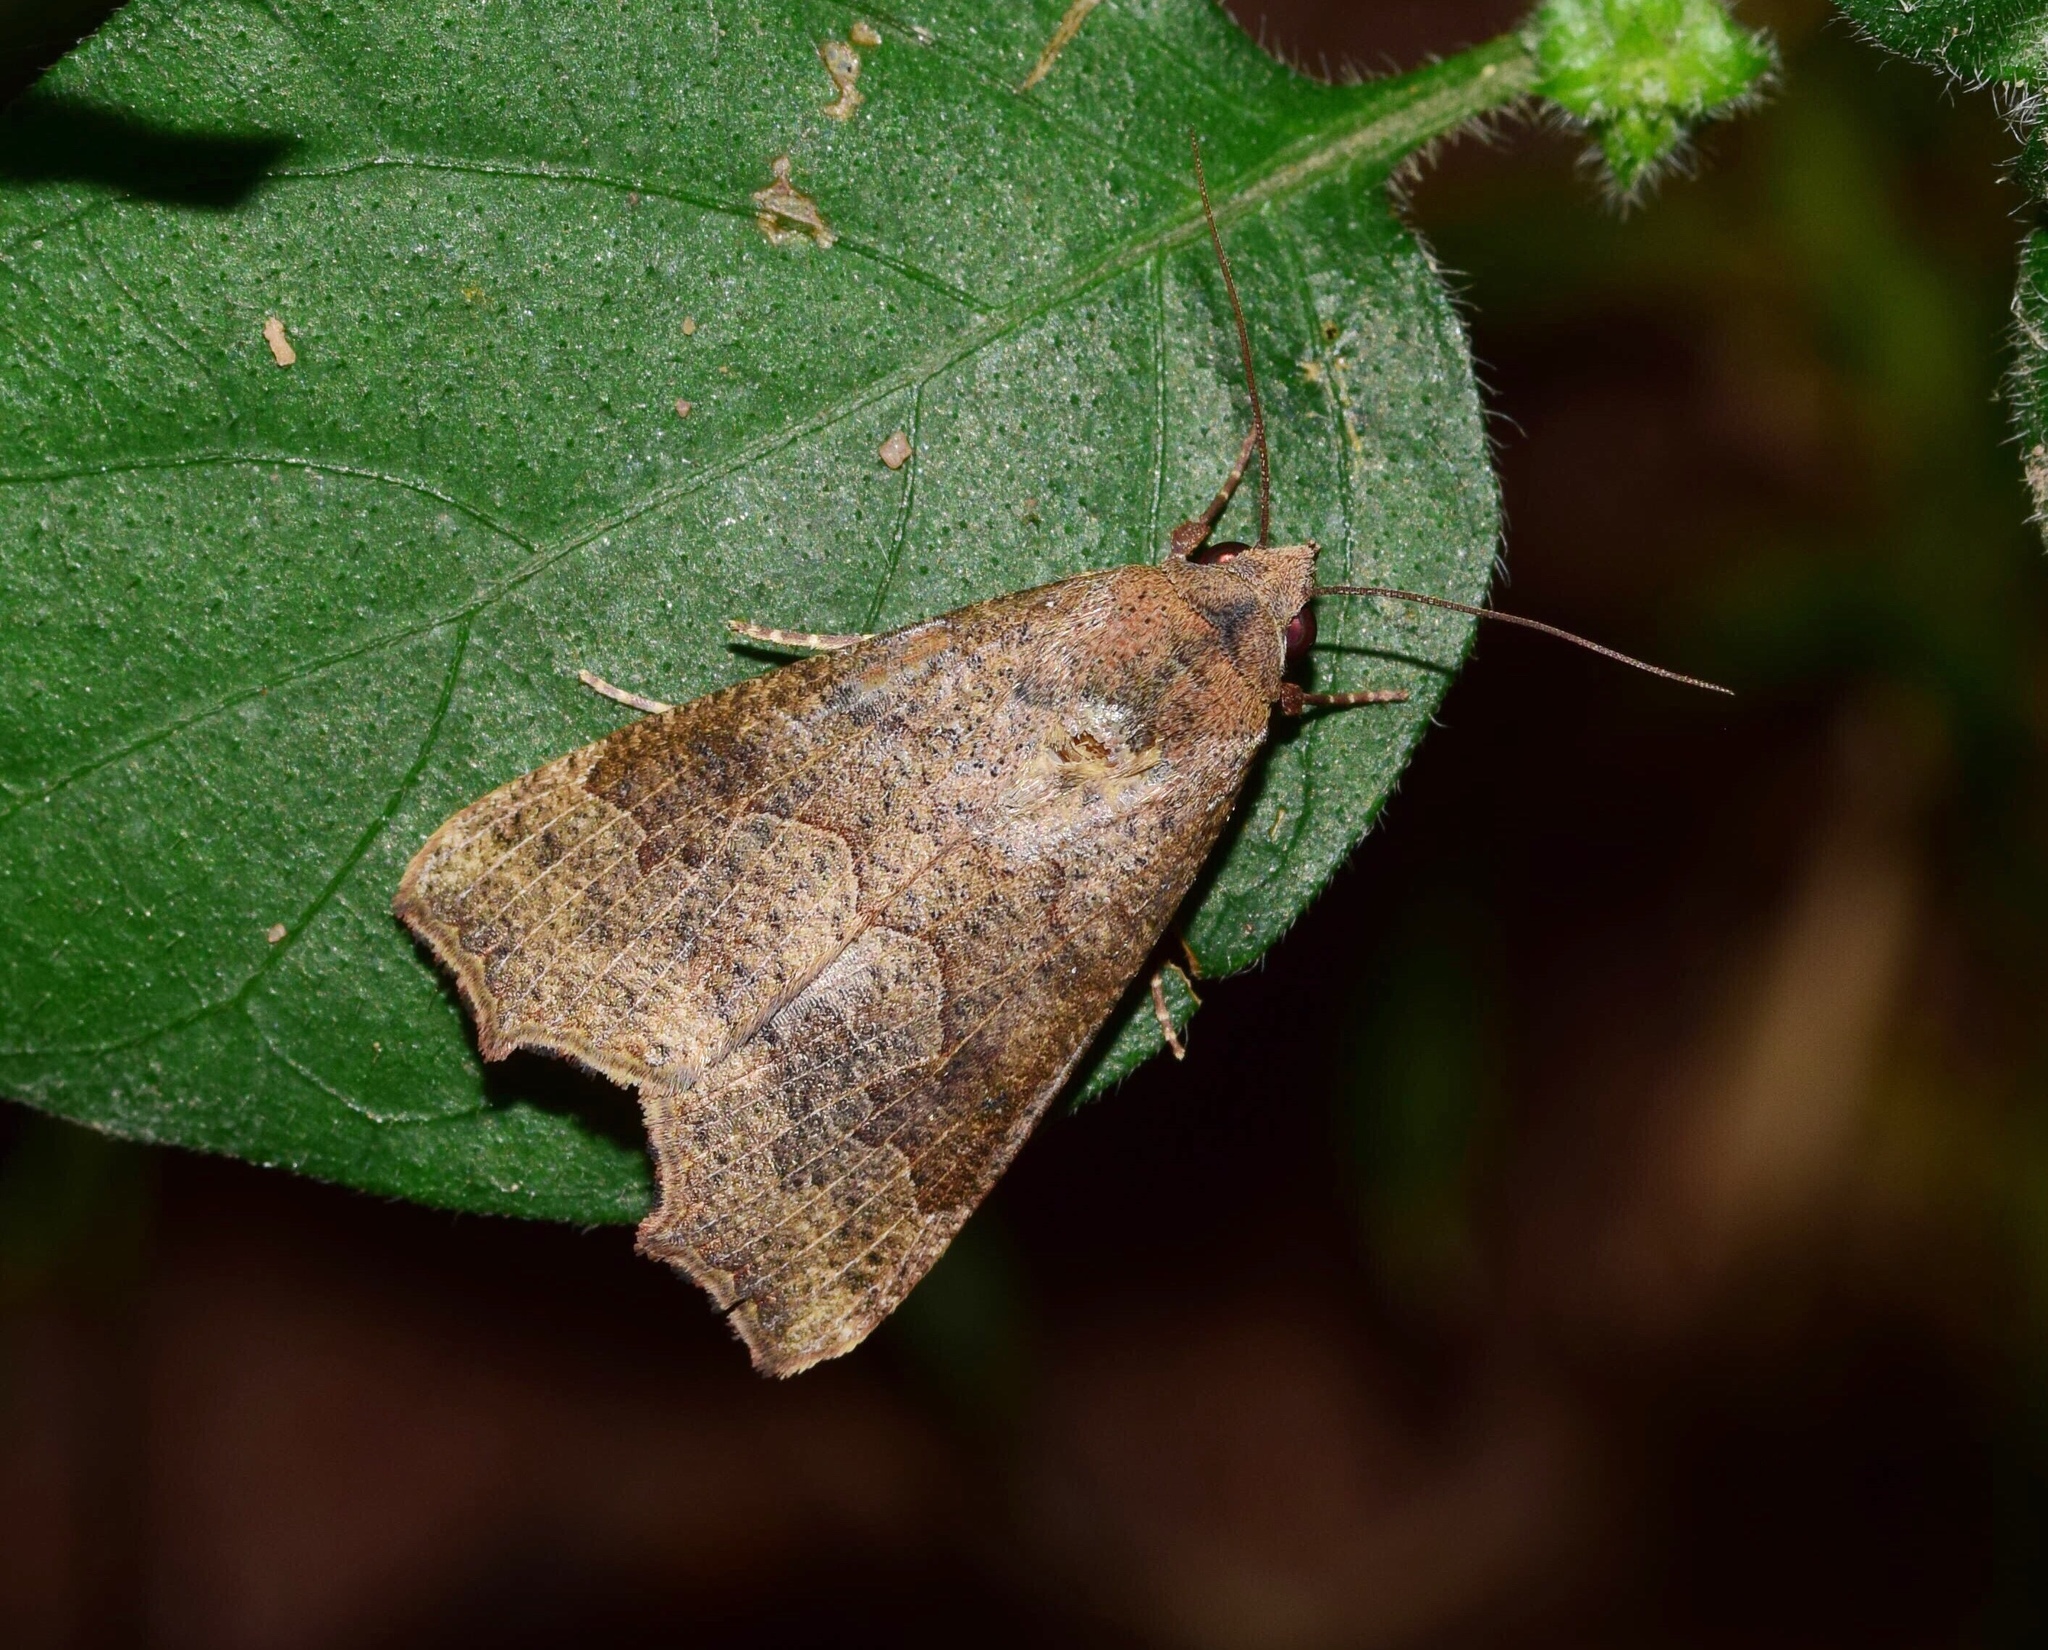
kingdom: Animalia
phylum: Arthropoda
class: Insecta
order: Lepidoptera
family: Erebidae
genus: Anomis
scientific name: Anomis sabulifera
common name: Angled gem
